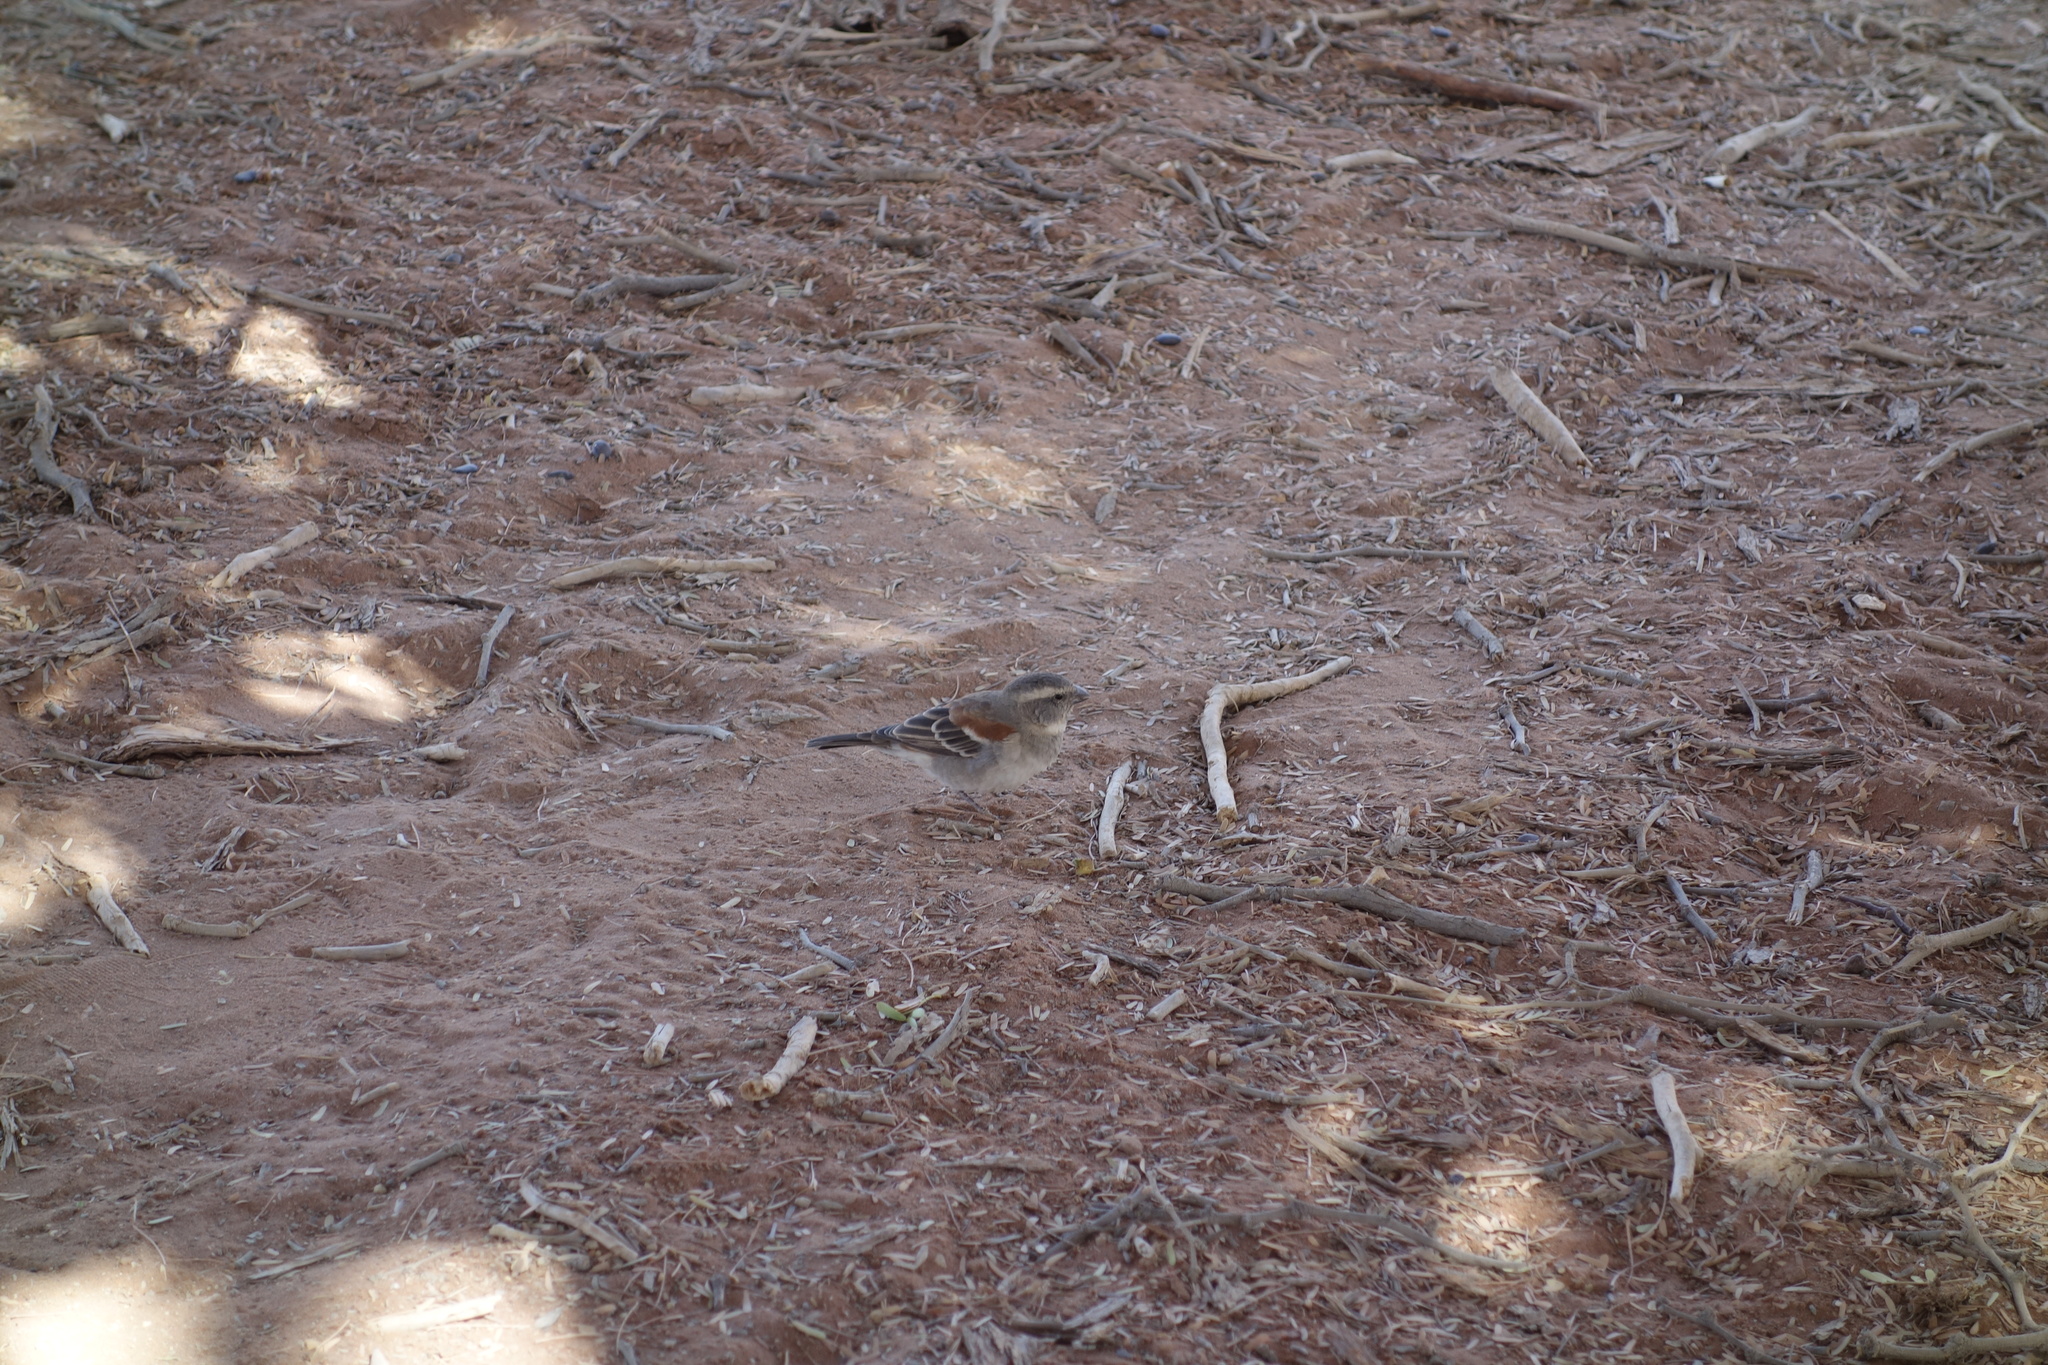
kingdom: Animalia
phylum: Chordata
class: Aves
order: Passeriformes
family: Passeridae
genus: Passer
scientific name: Passer melanurus
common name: Cape sparrow
